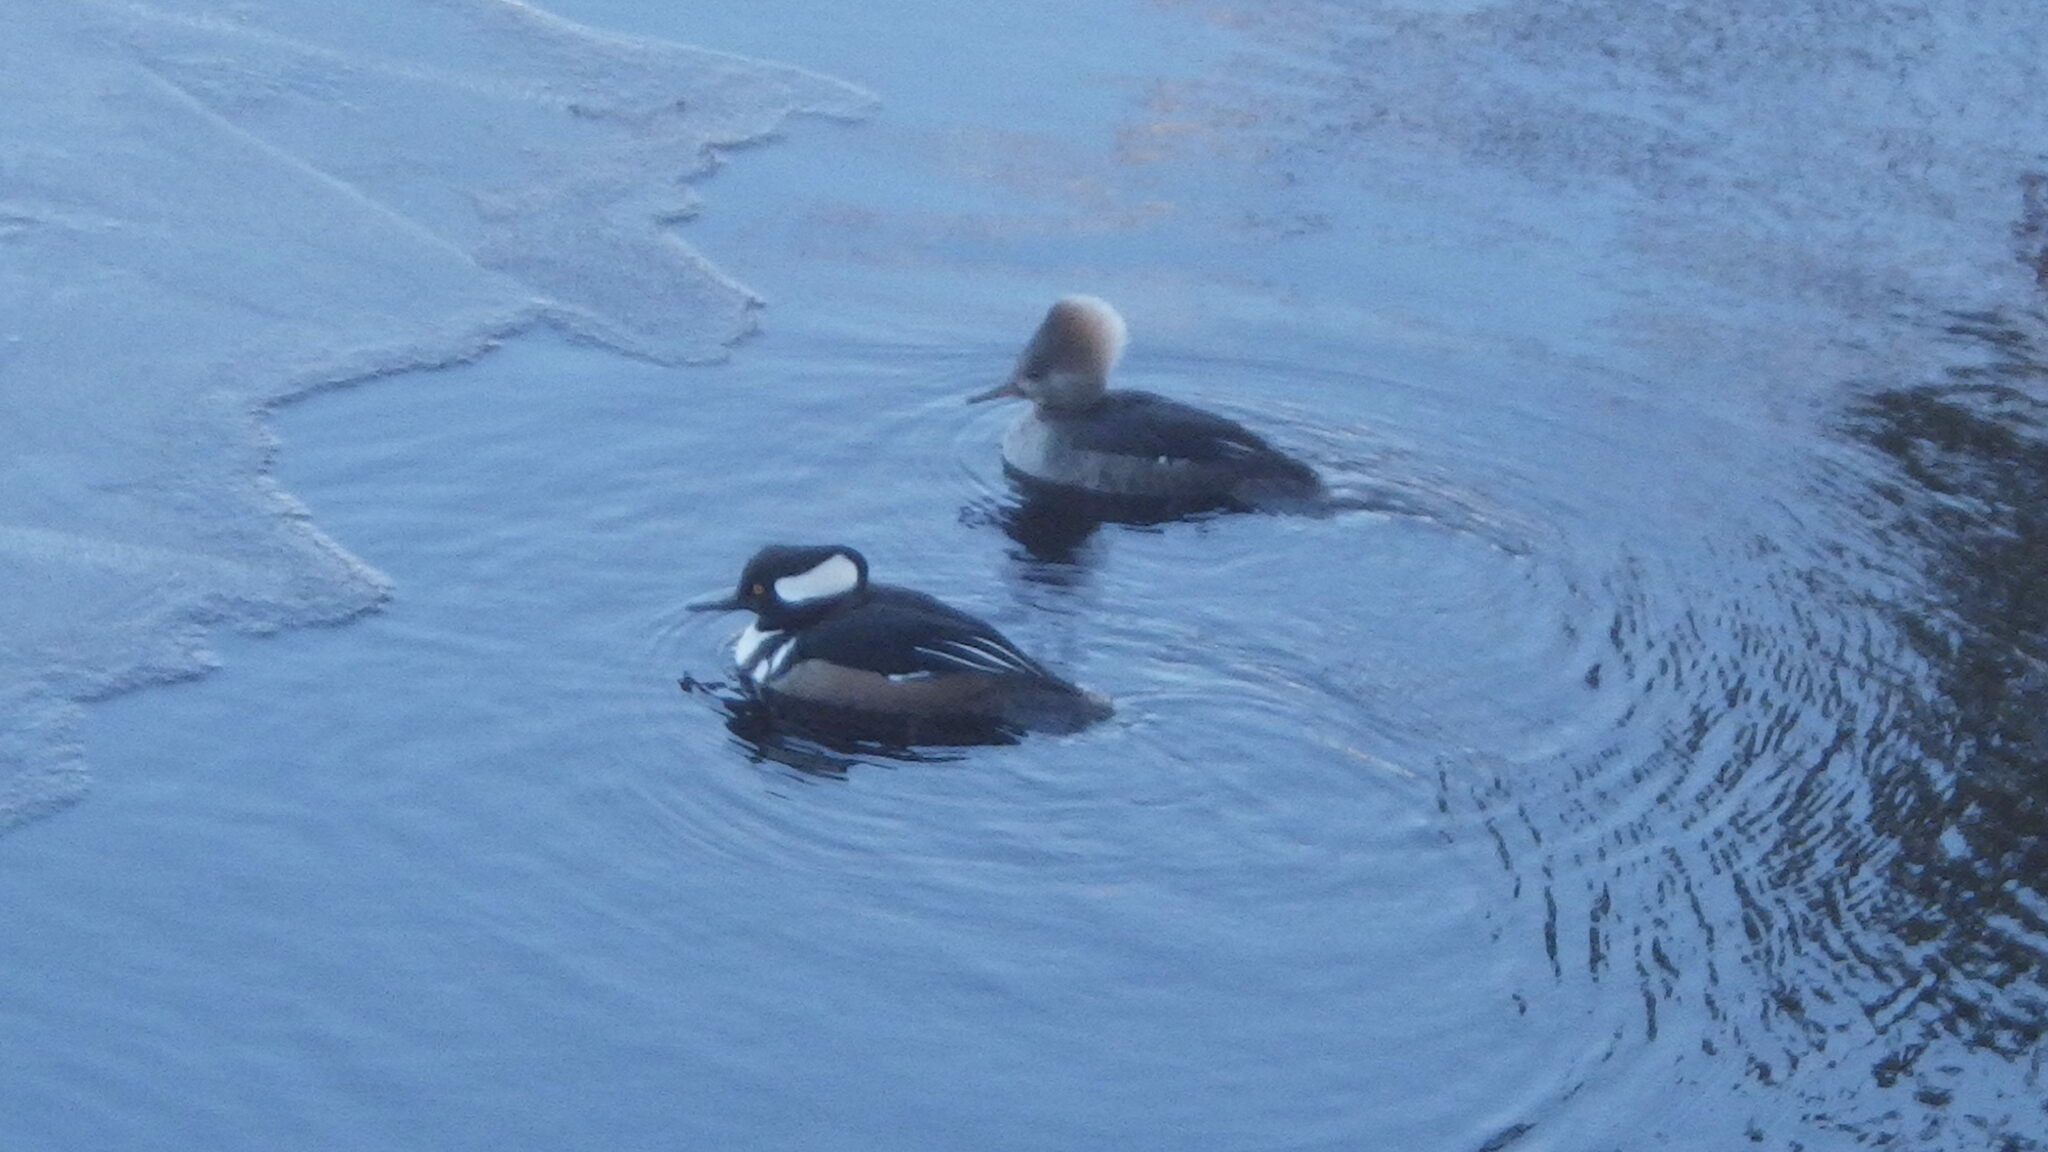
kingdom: Animalia
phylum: Chordata
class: Aves
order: Anseriformes
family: Anatidae
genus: Lophodytes
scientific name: Lophodytes cucullatus
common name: Hooded merganser
